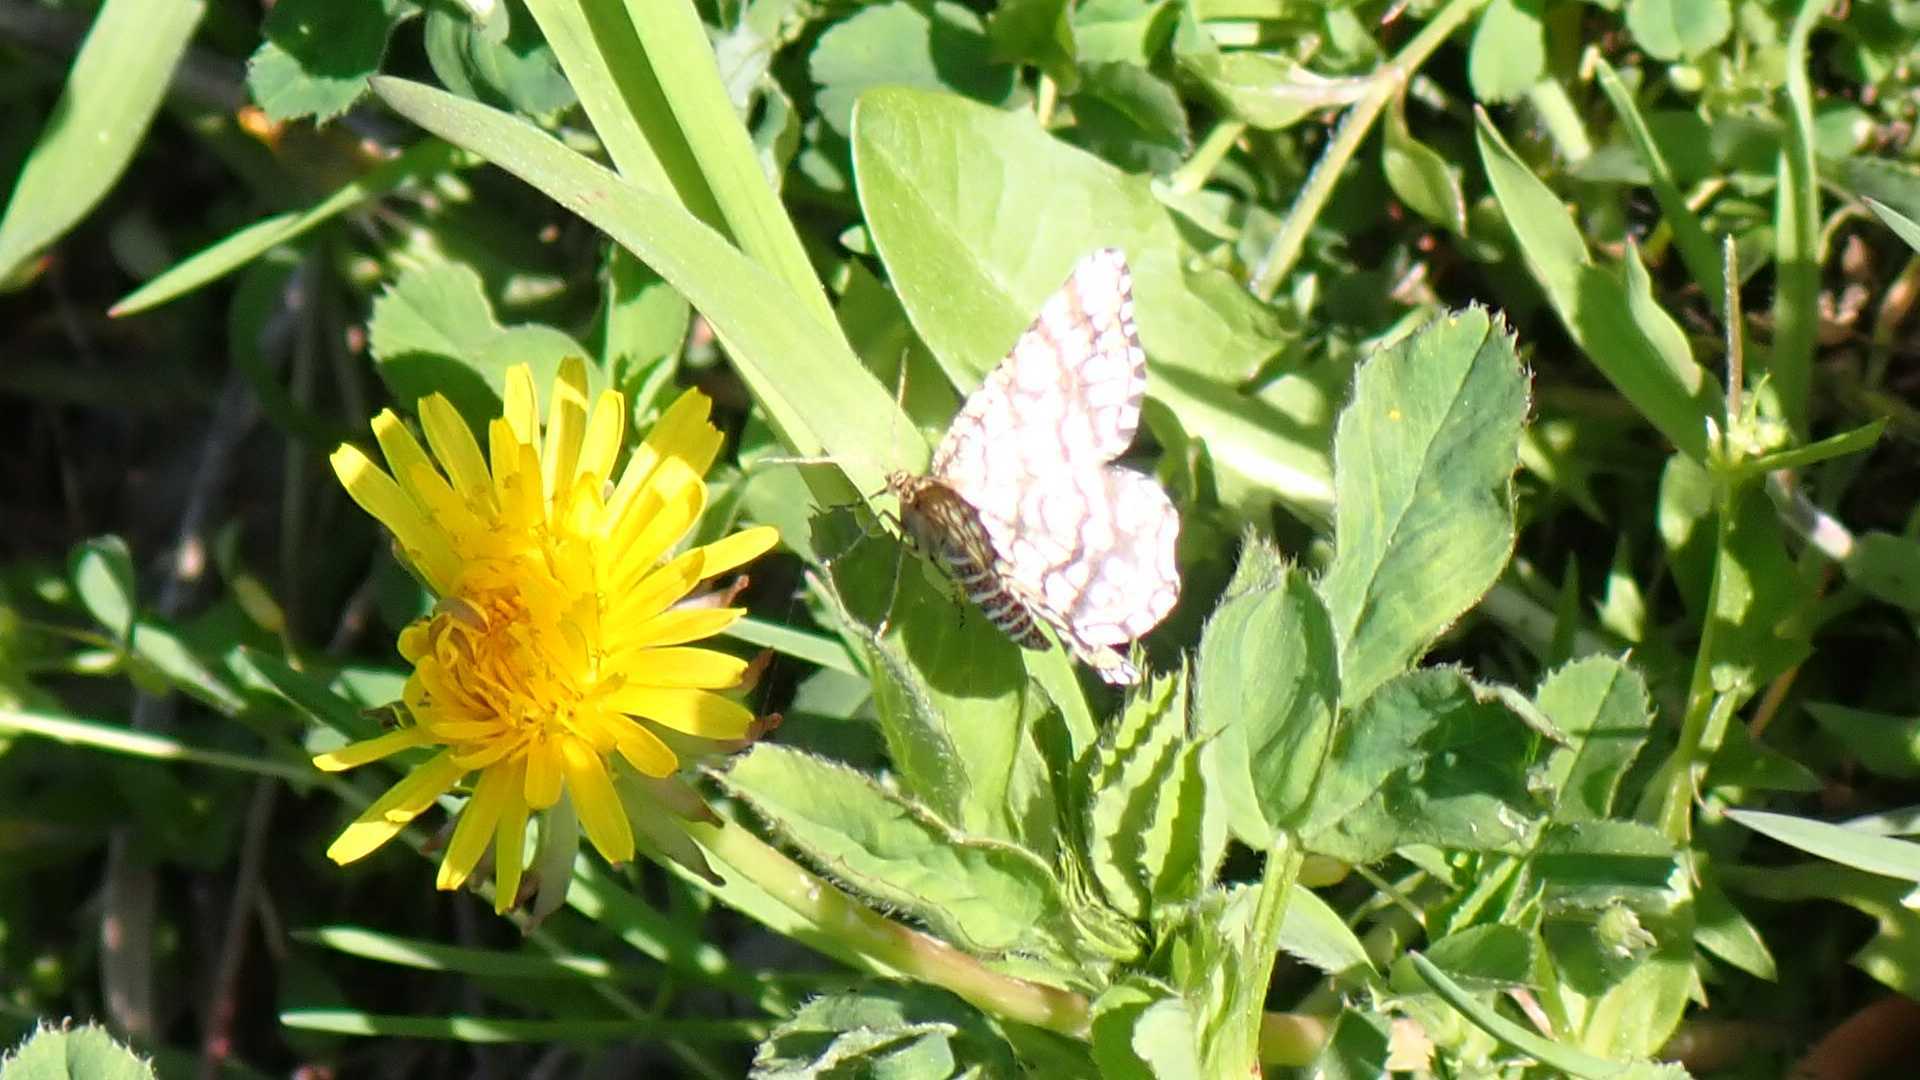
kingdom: Animalia
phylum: Arthropoda
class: Insecta
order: Lepidoptera
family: Geometridae
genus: Chiasmia
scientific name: Chiasmia clathrata
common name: Latticed heath
